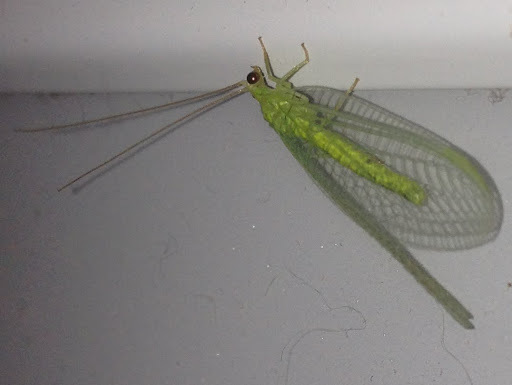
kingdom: Animalia
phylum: Arthropoda
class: Insecta
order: Neuroptera
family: Chrysopidae
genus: Chrysopa
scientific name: Chrysopa nigricornis
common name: Black-horned green lacewing
